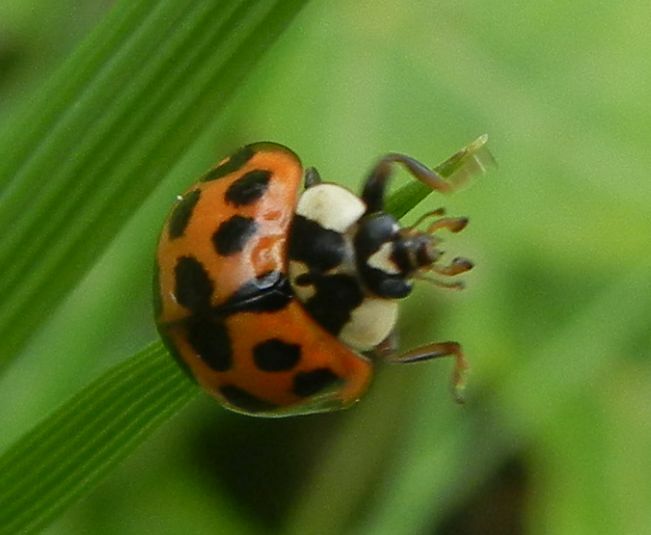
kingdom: Animalia
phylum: Arthropoda
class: Insecta
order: Coleoptera
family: Coccinellidae
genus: Harmonia
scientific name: Harmonia axyridis
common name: Harlequin ladybird
